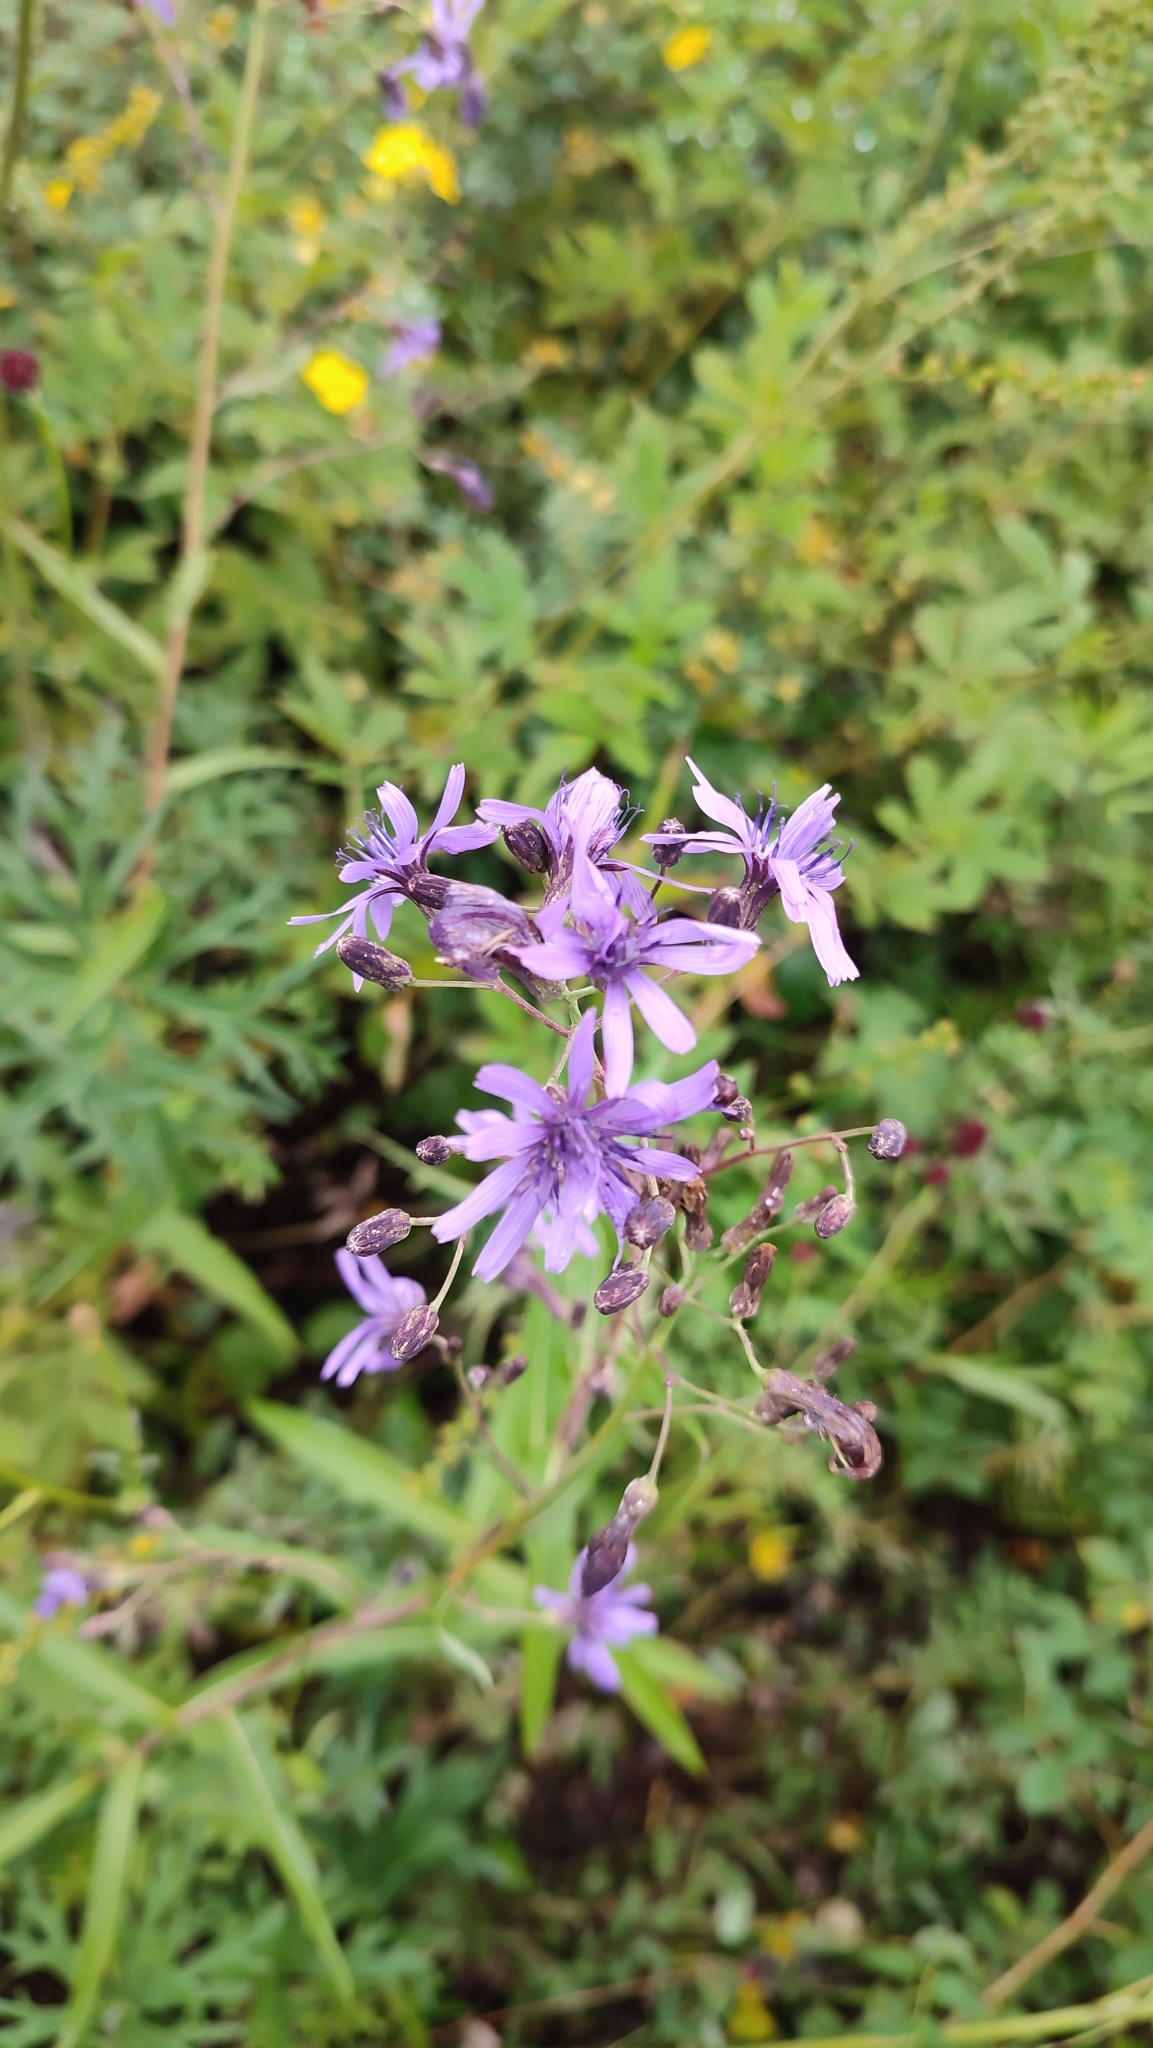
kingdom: Plantae
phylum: Tracheophyta
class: Magnoliopsida
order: Asterales
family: Asteraceae
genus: Lactuca
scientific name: Lactuca sibirica
